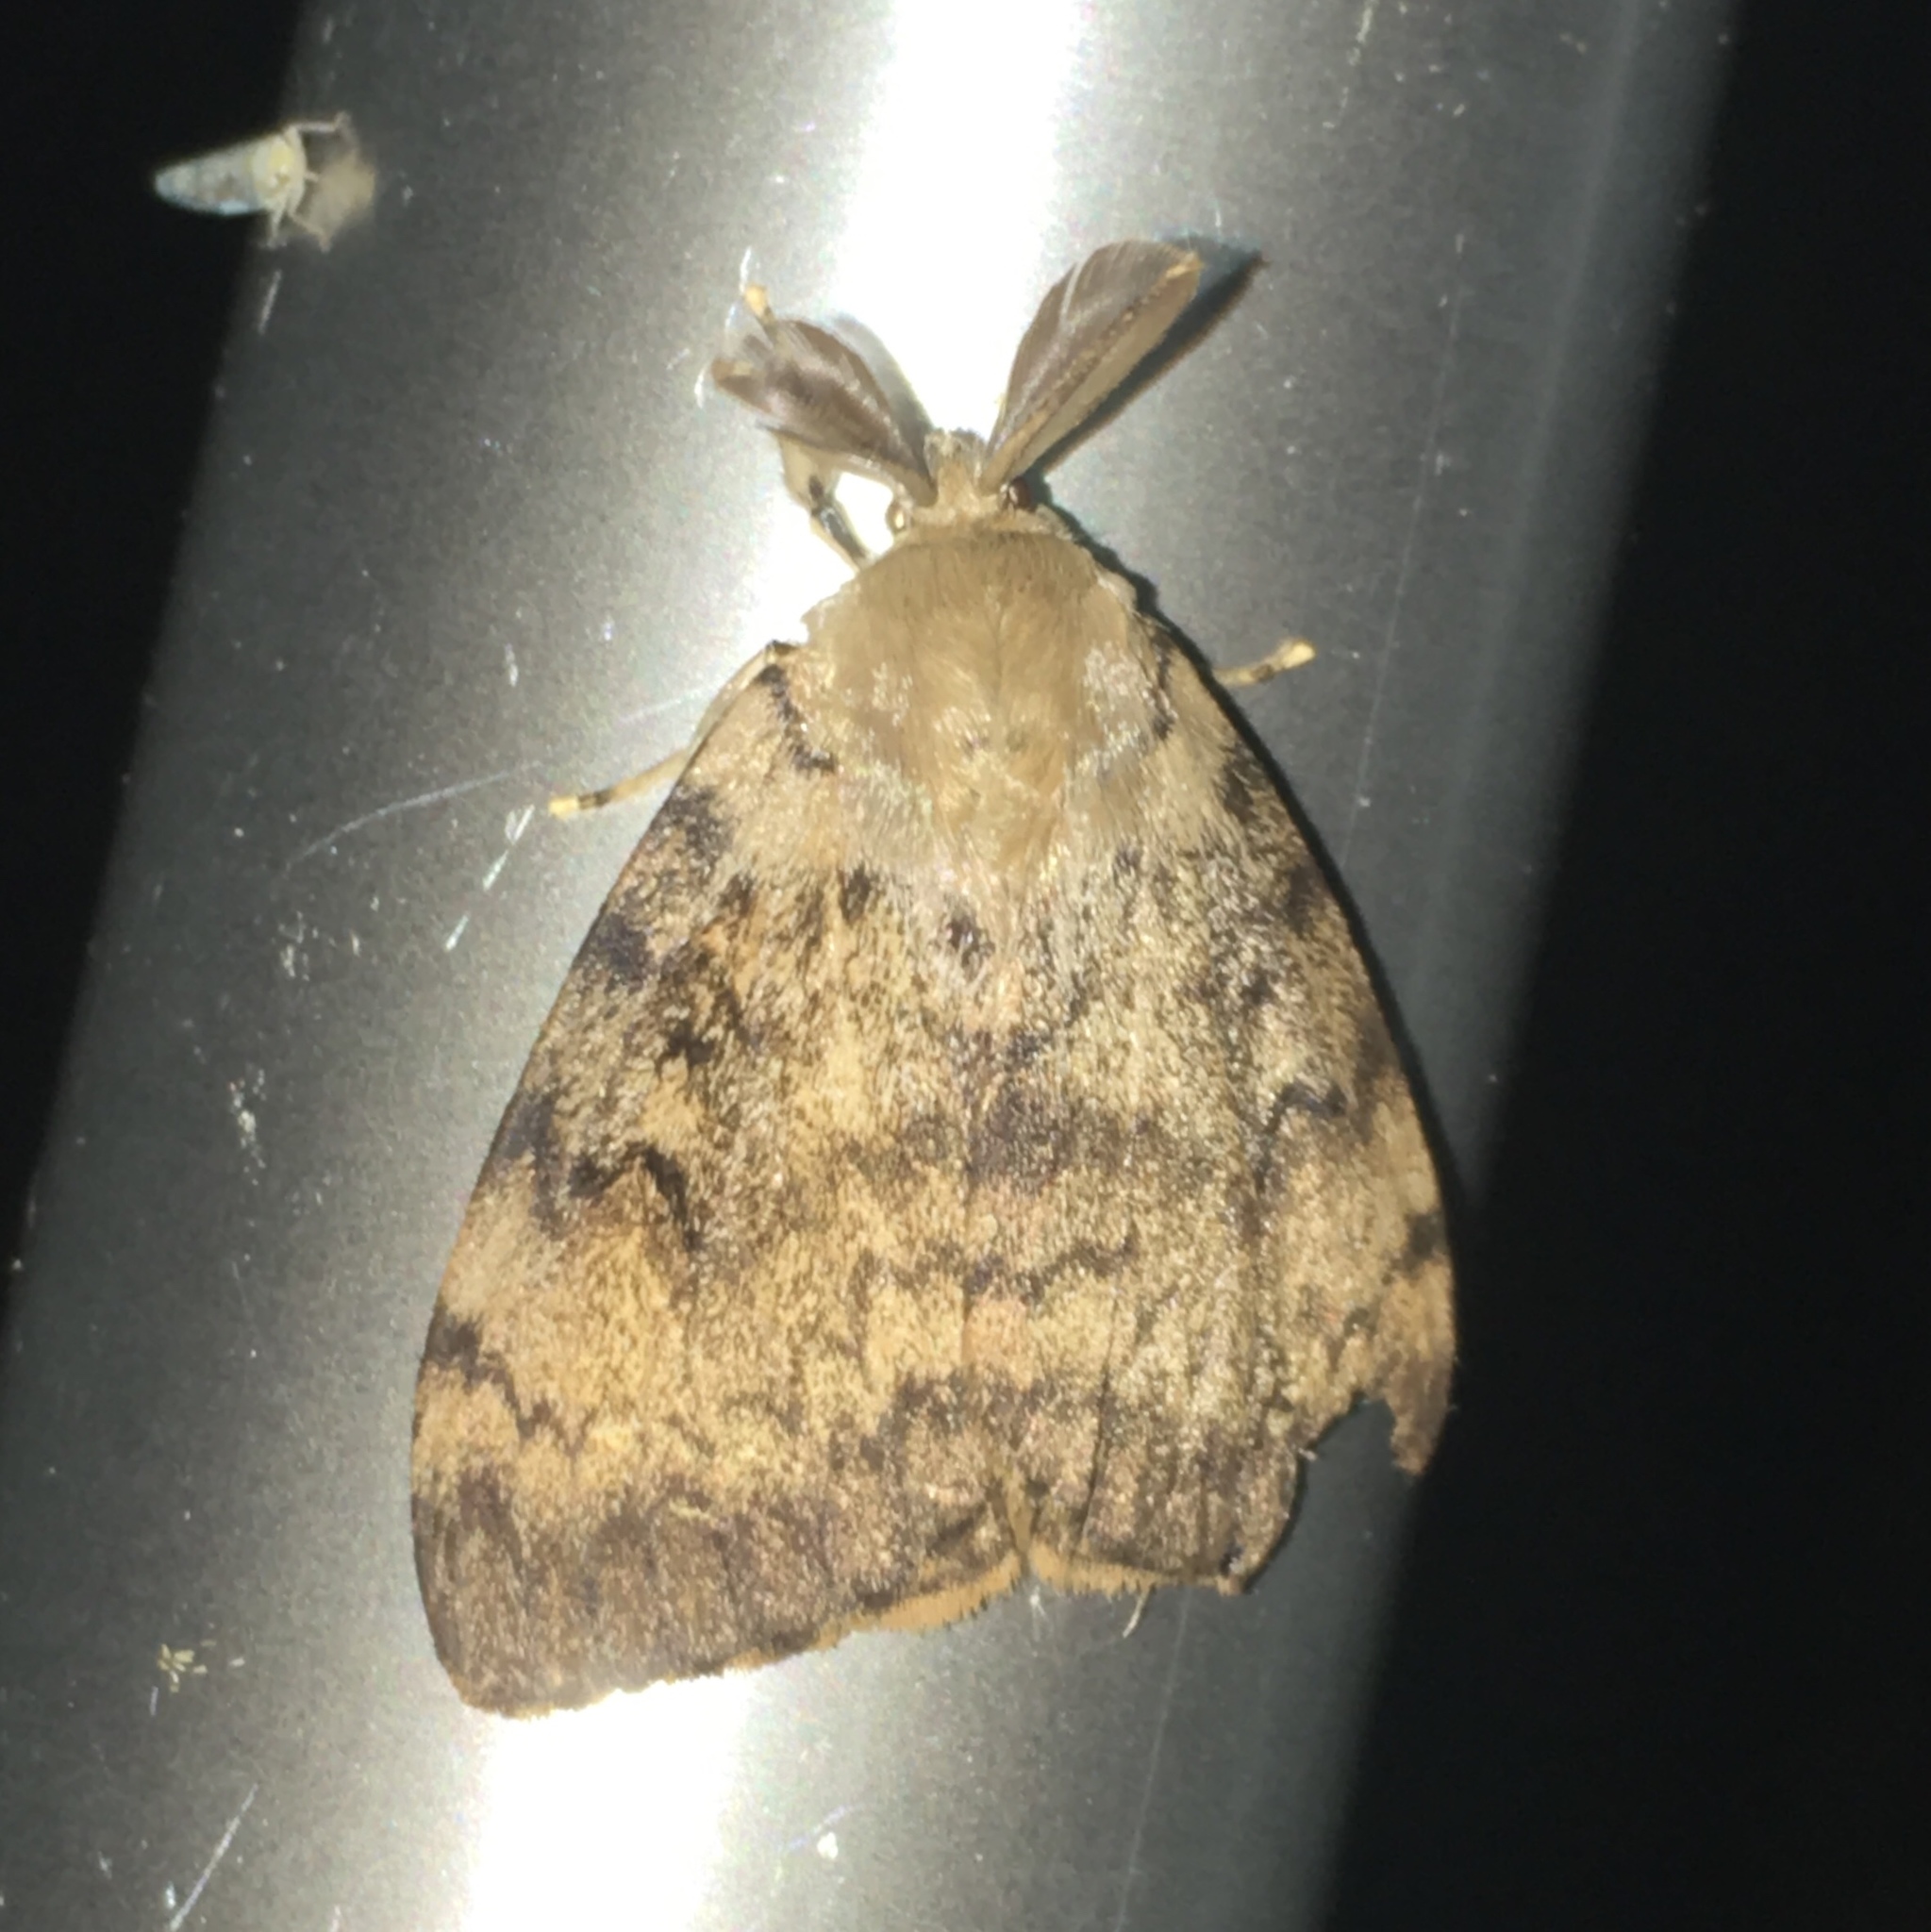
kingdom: Animalia
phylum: Arthropoda
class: Insecta
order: Lepidoptera
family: Erebidae
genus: Lymantria
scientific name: Lymantria dispar
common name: Gypsy moth
